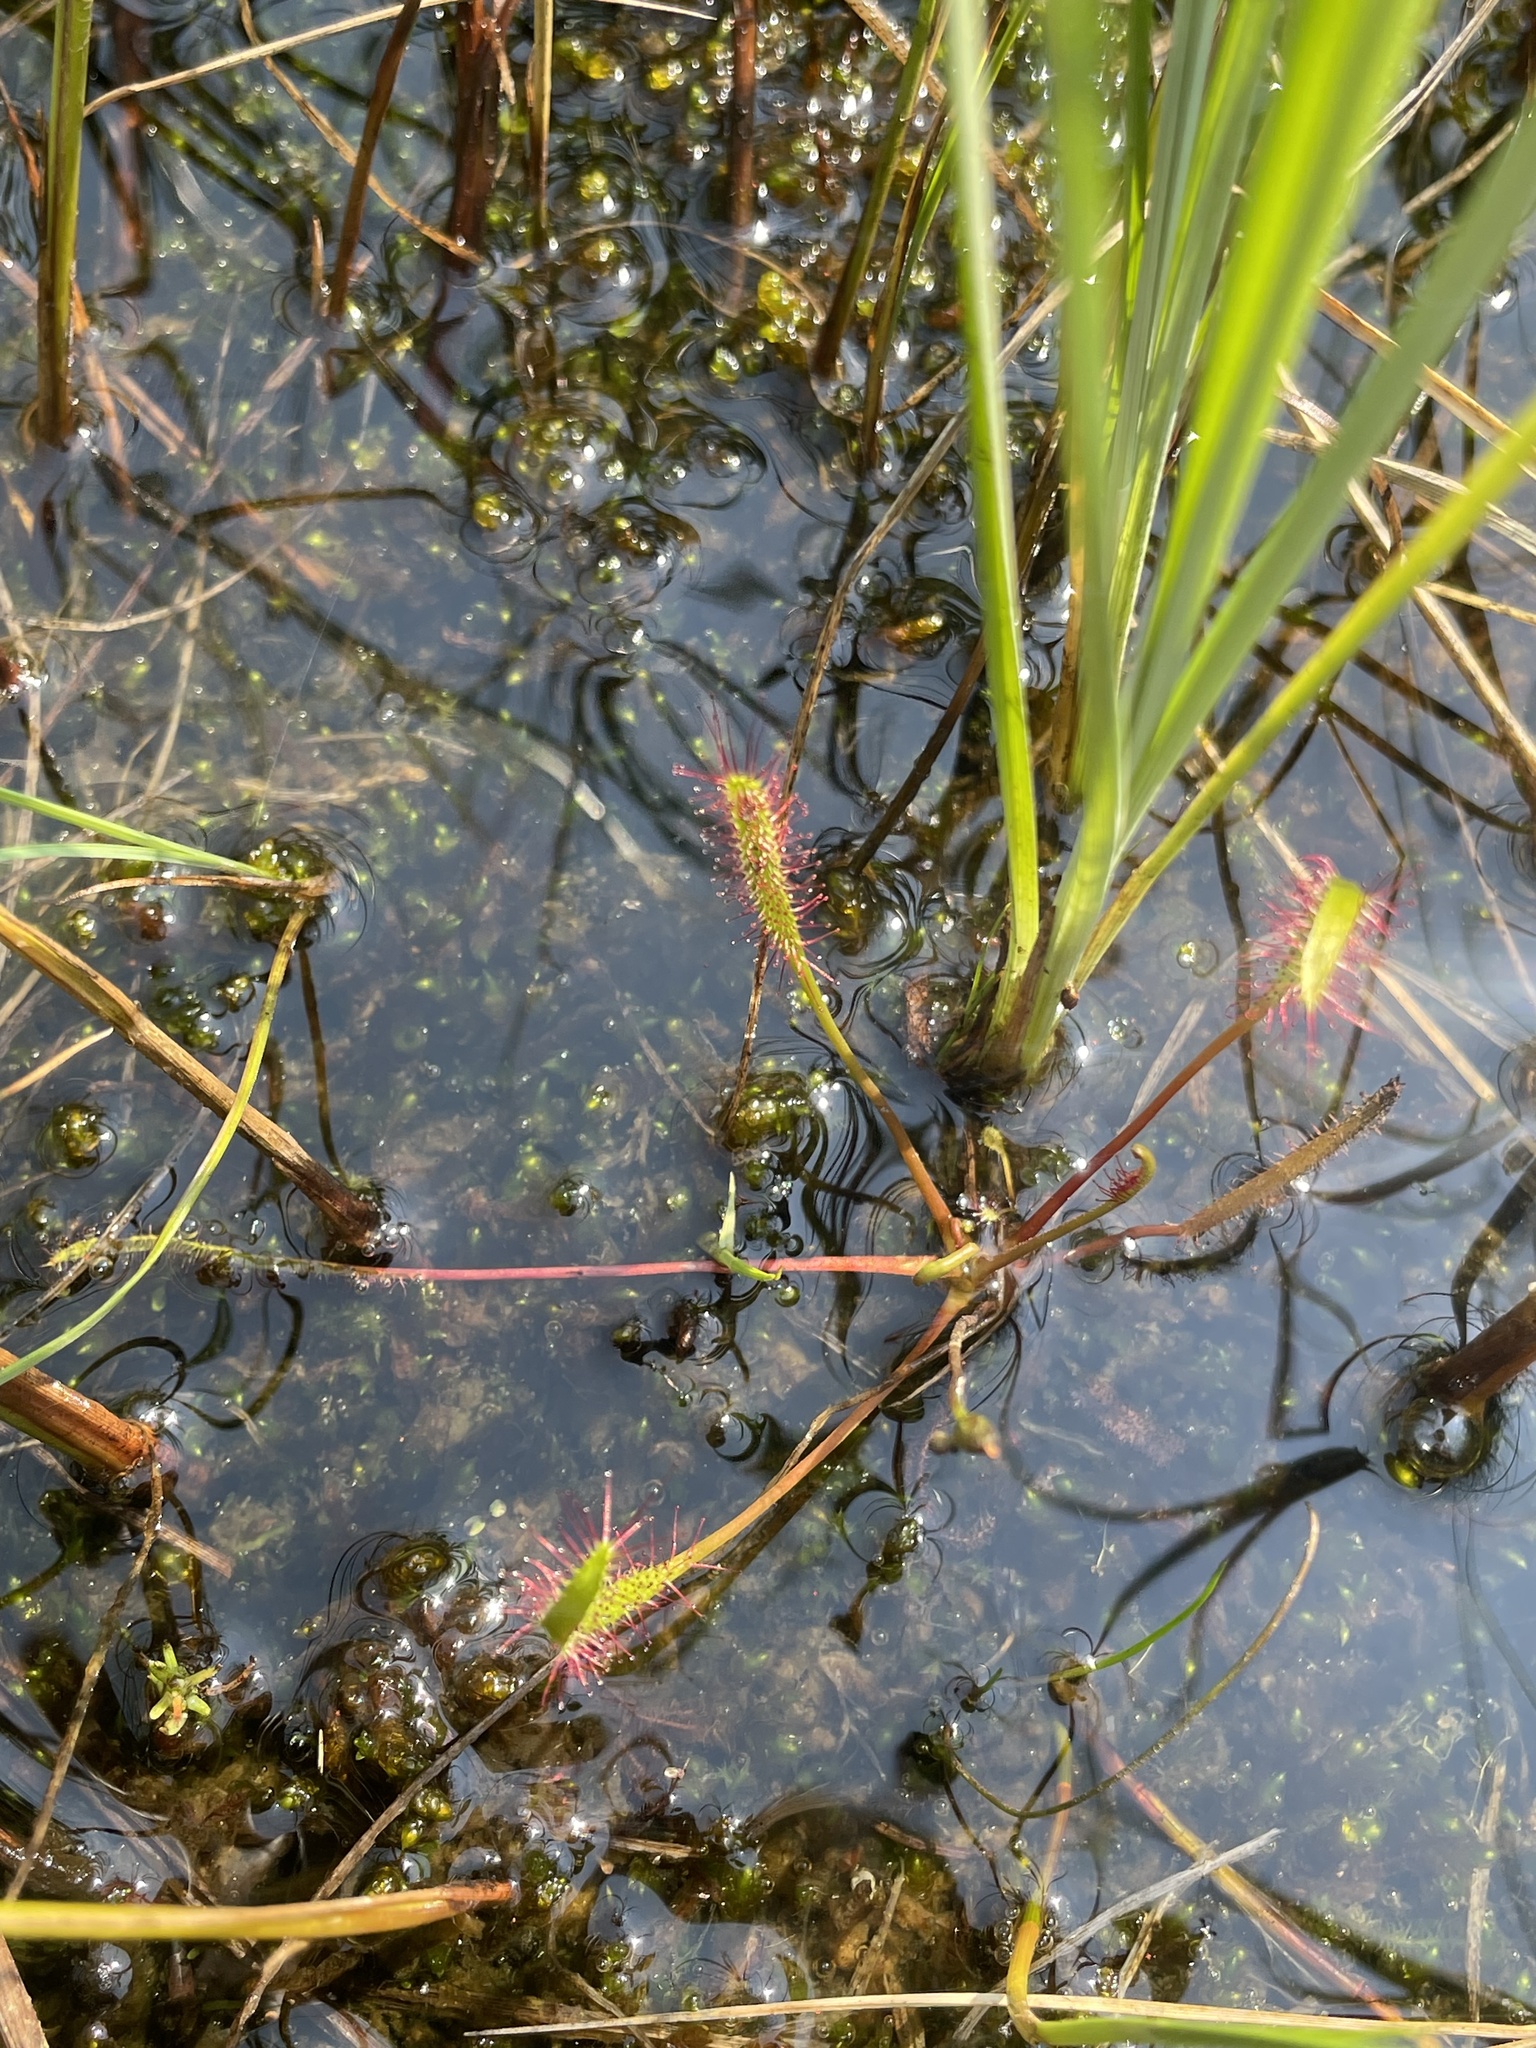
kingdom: Plantae
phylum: Tracheophyta
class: Magnoliopsida
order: Caryophyllales
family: Droseraceae
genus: Drosera
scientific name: Drosera linearis
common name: Linear-leaved sundew
